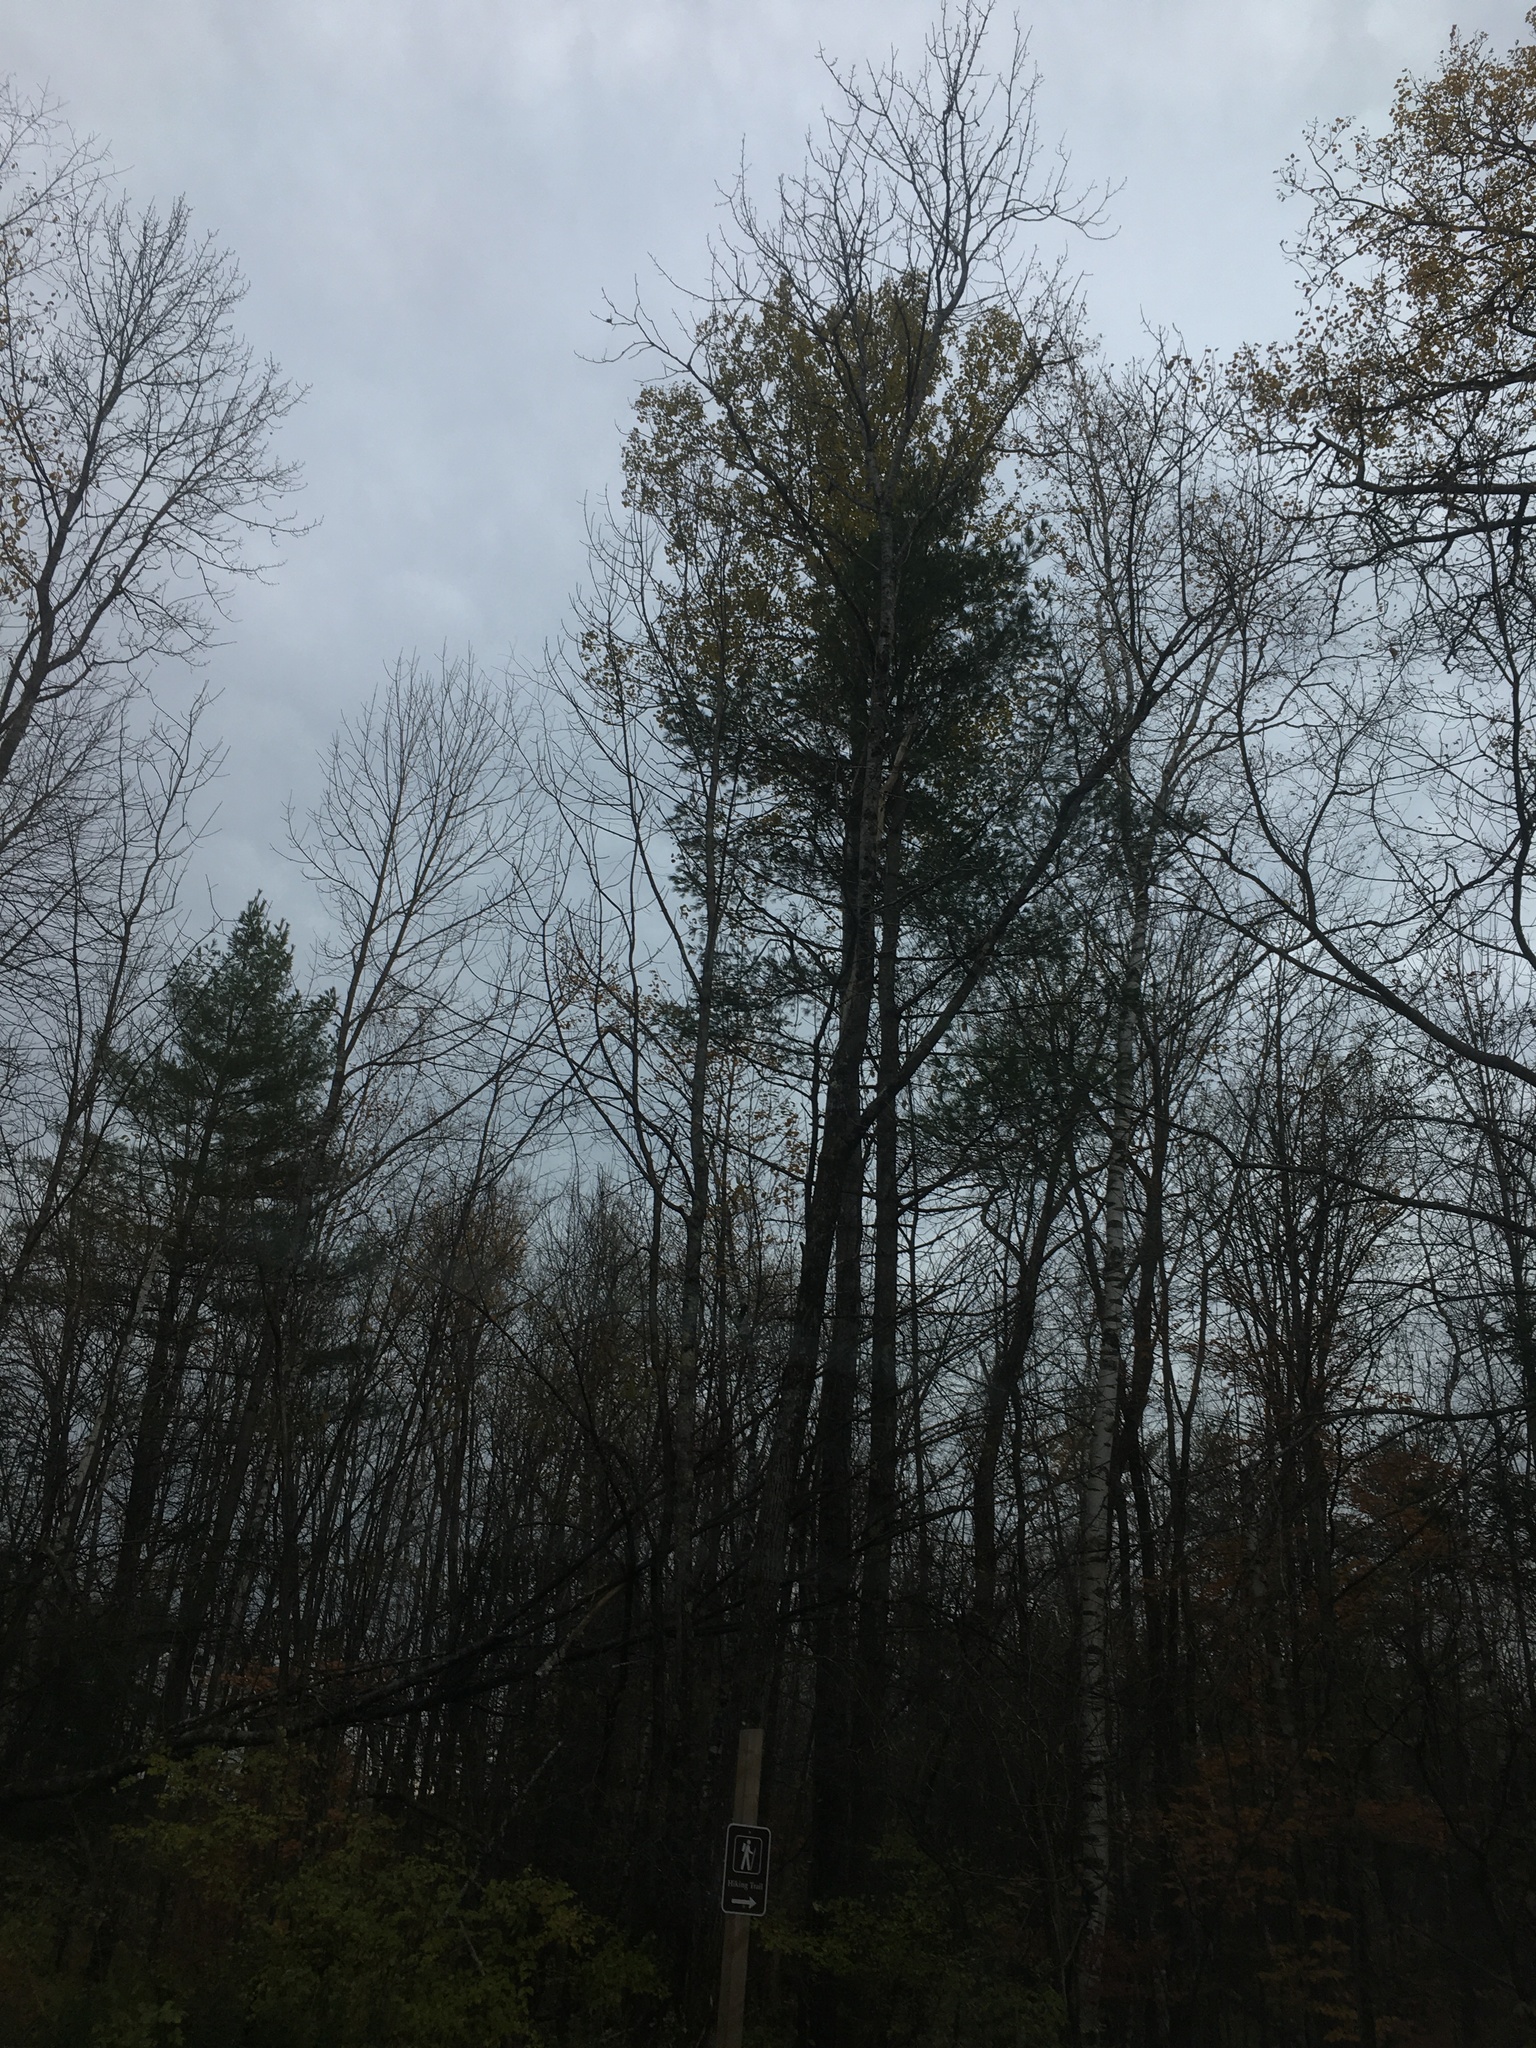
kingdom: Plantae
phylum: Tracheophyta
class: Pinopsida
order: Pinales
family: Pinaceae
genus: Pinus
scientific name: Pinus strobus
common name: Weymouth pine
